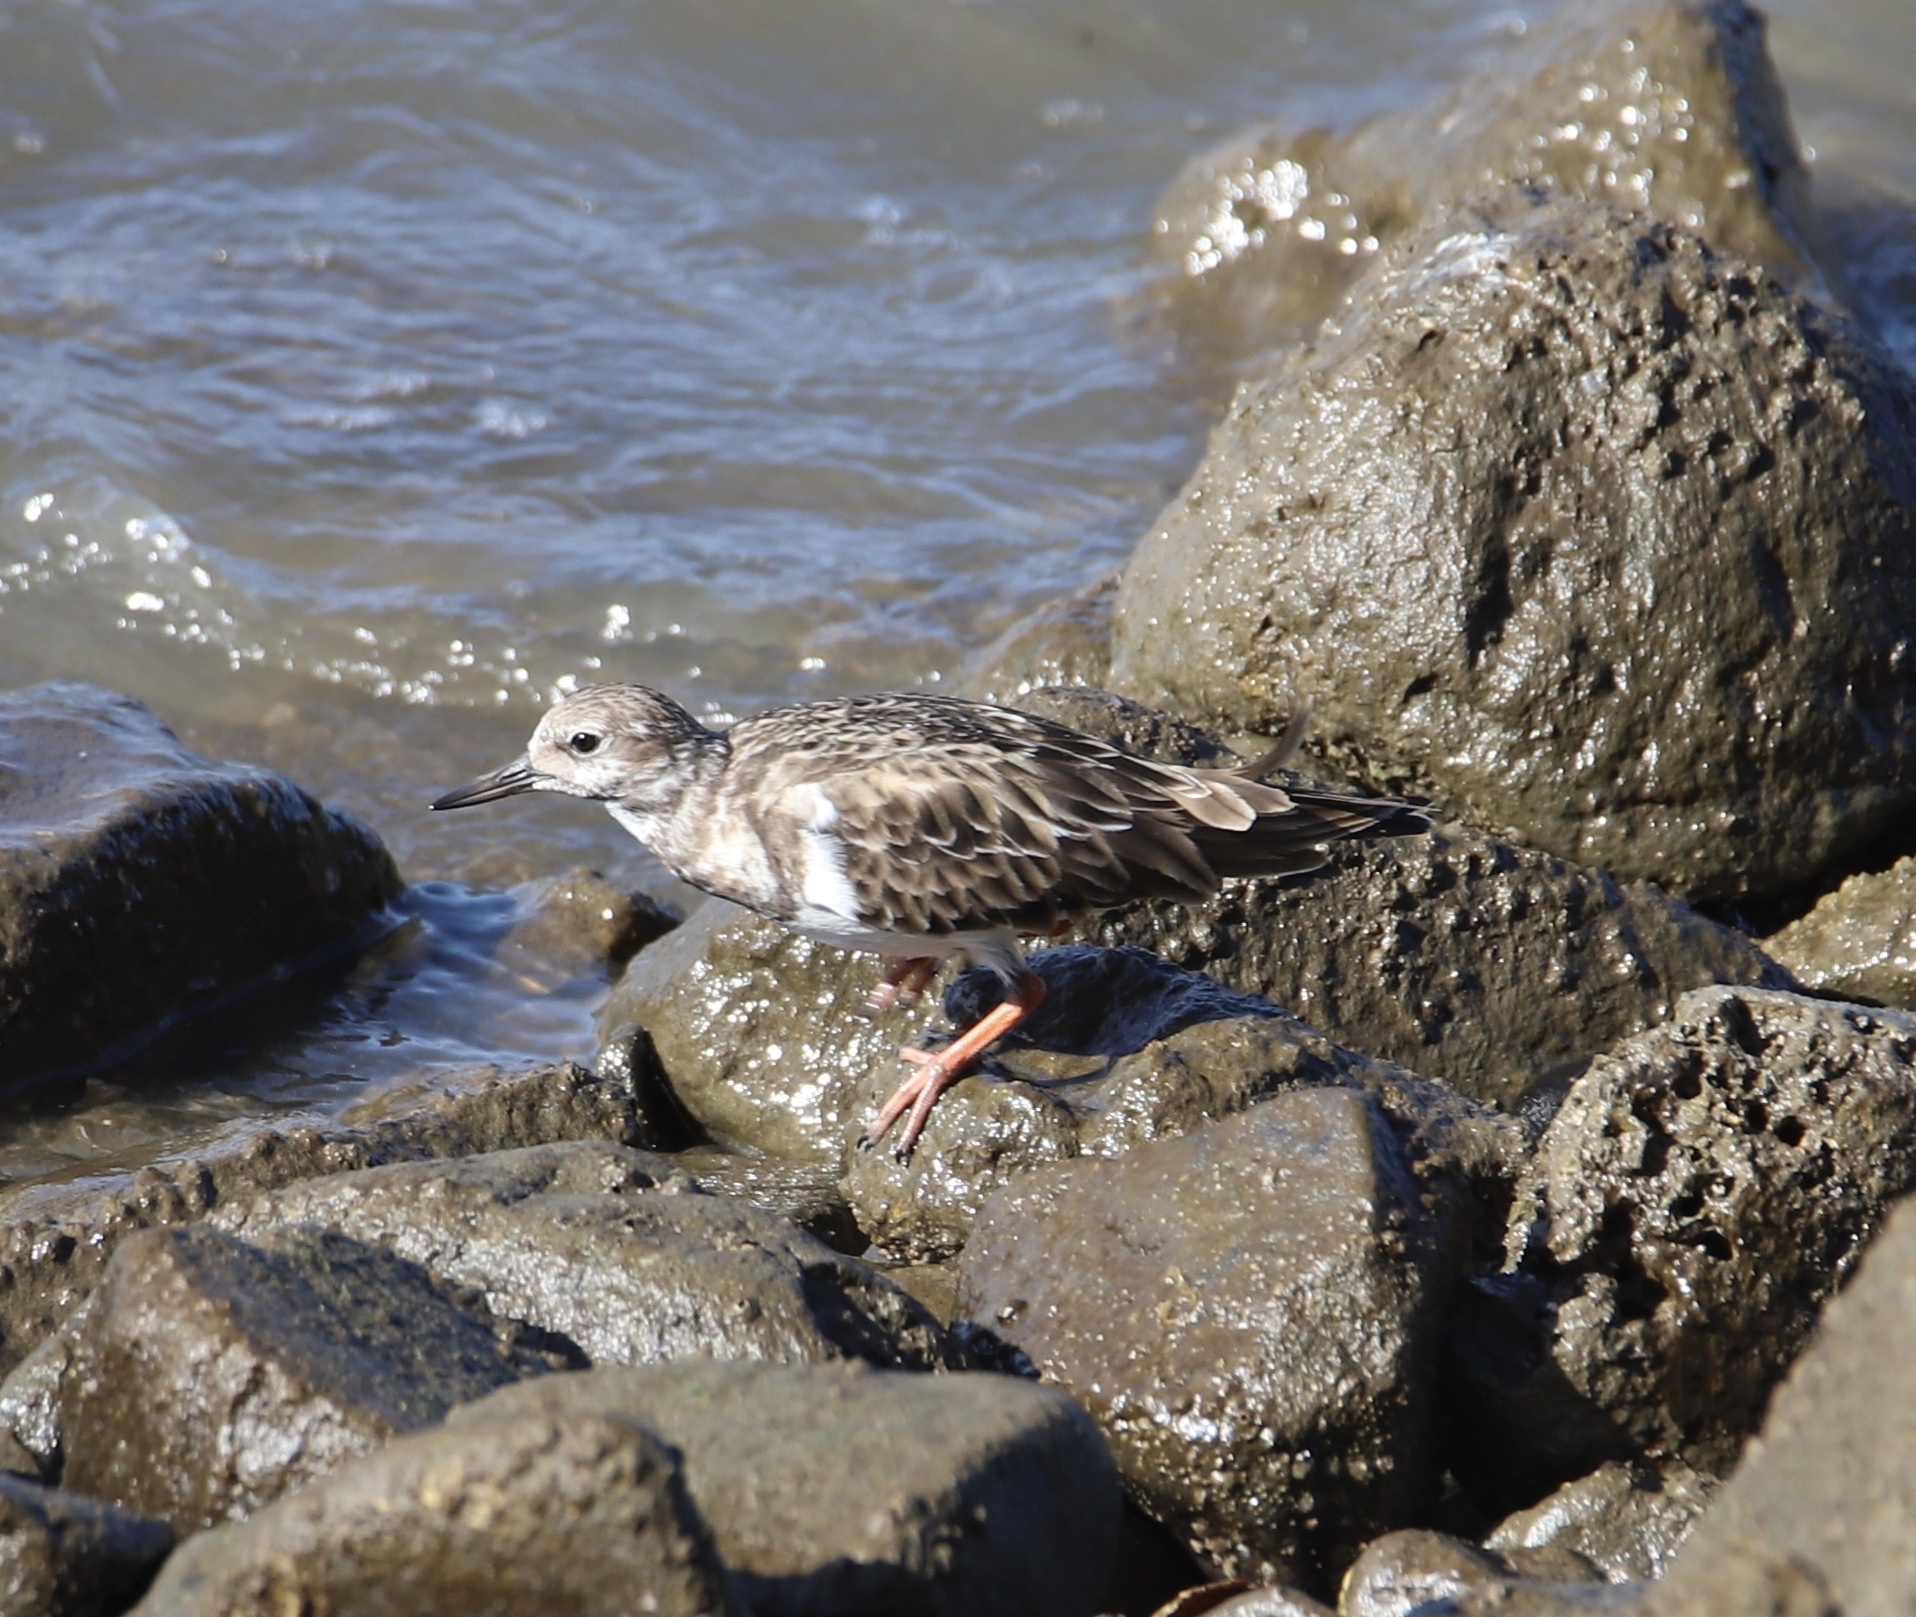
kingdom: Animalia
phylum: Chordata
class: Aves
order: Charadriiformes
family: Scolopacidae
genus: Arenaria
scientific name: Arenaria interpres
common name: Ruddy turnstone
